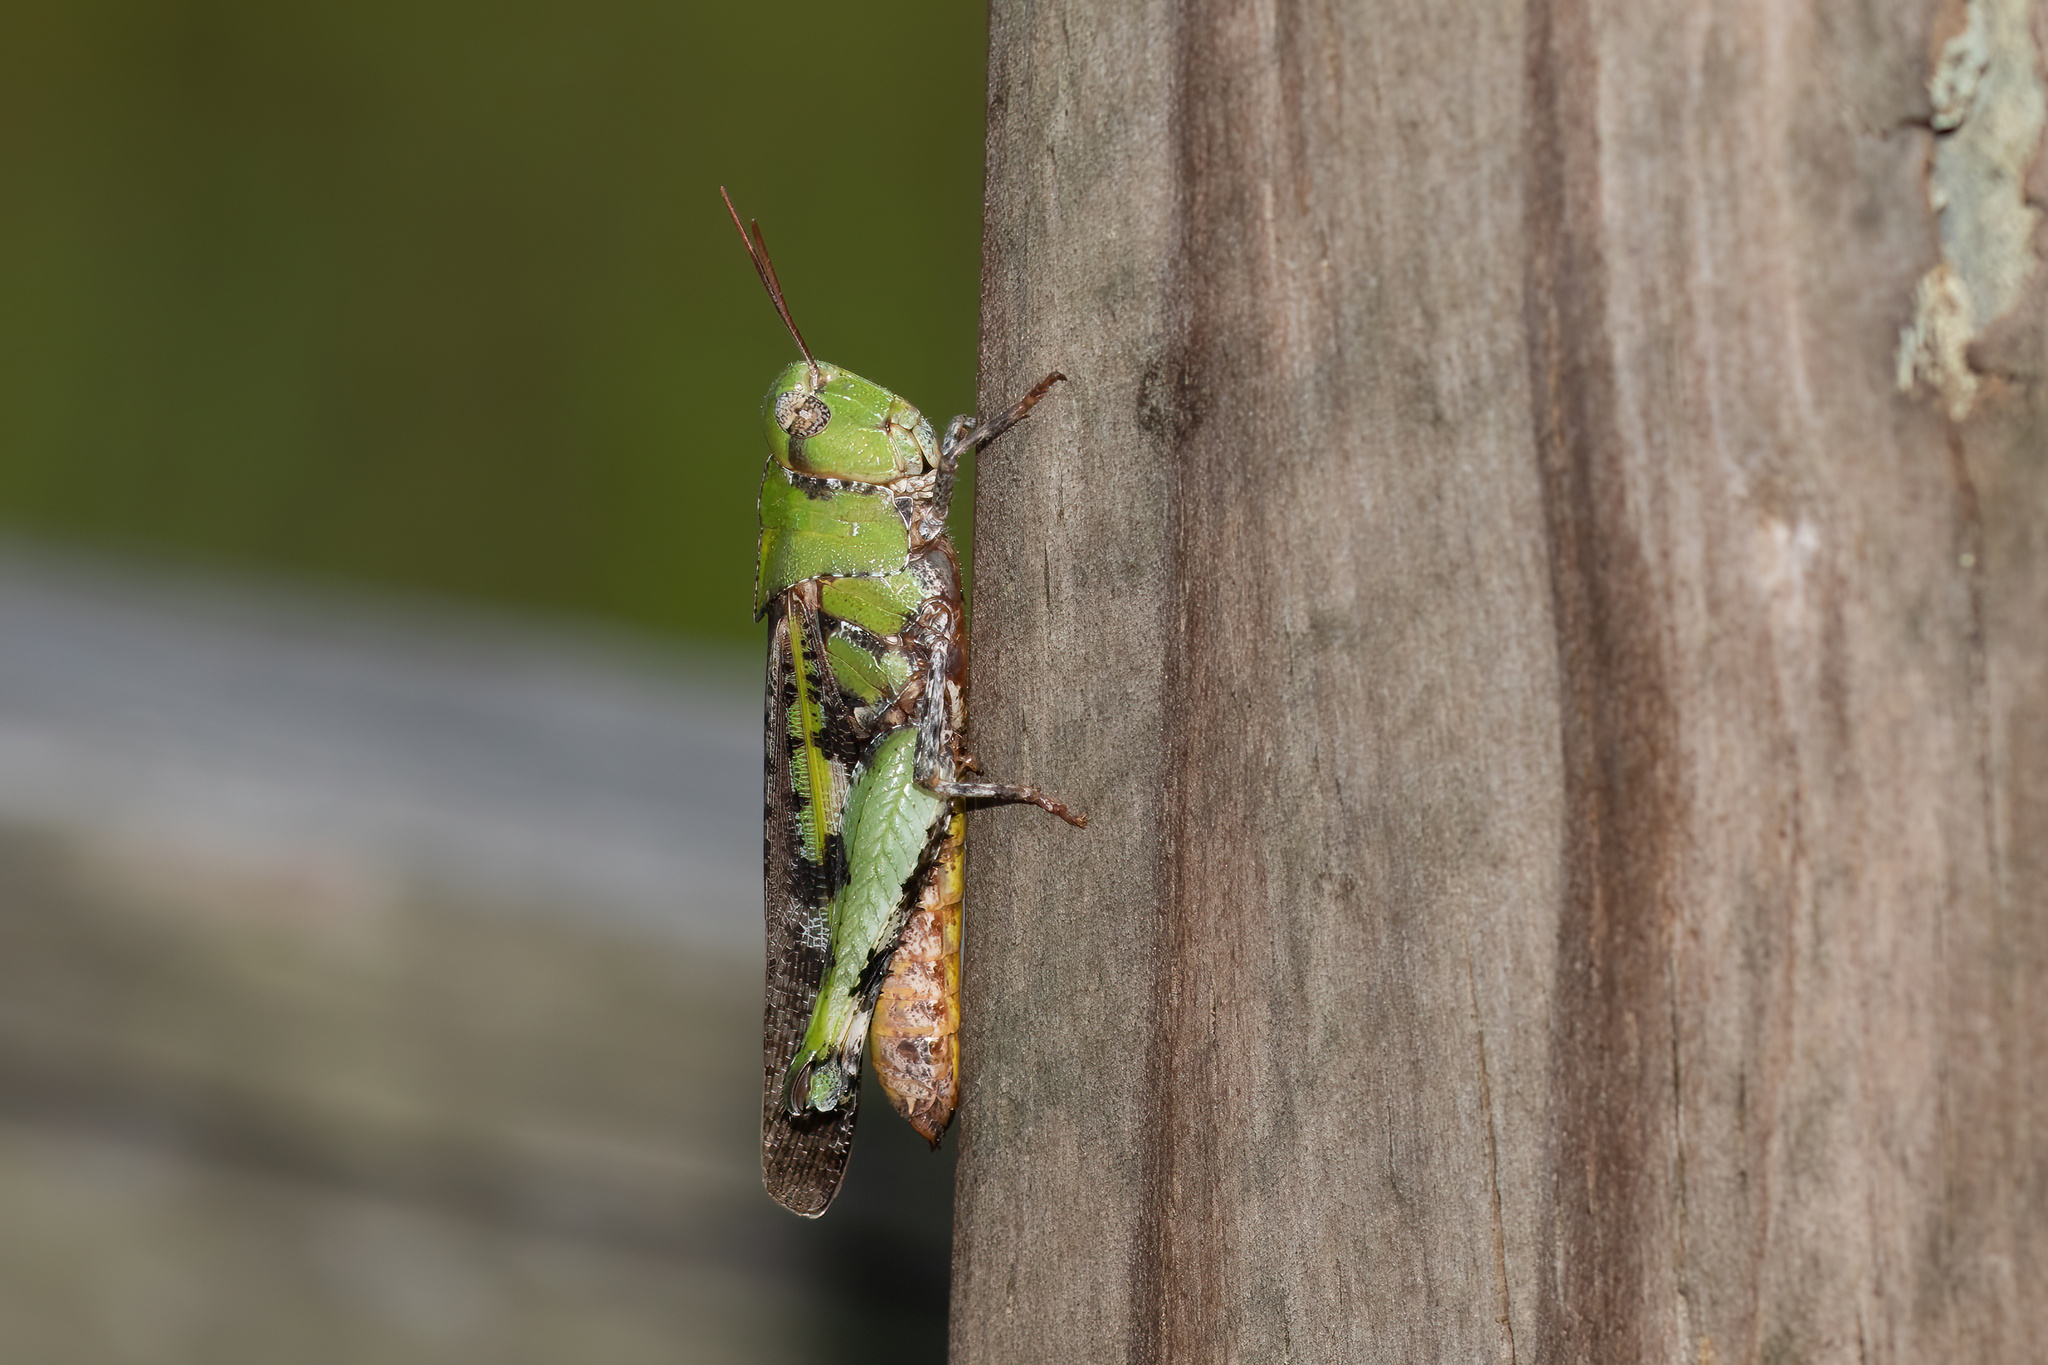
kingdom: Animalia
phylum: Arthropoda
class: Insecta
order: Orthoptera
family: Acrididae
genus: Chortophaga
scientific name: Chortophaga australior
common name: Southern green-striped grasshopper
